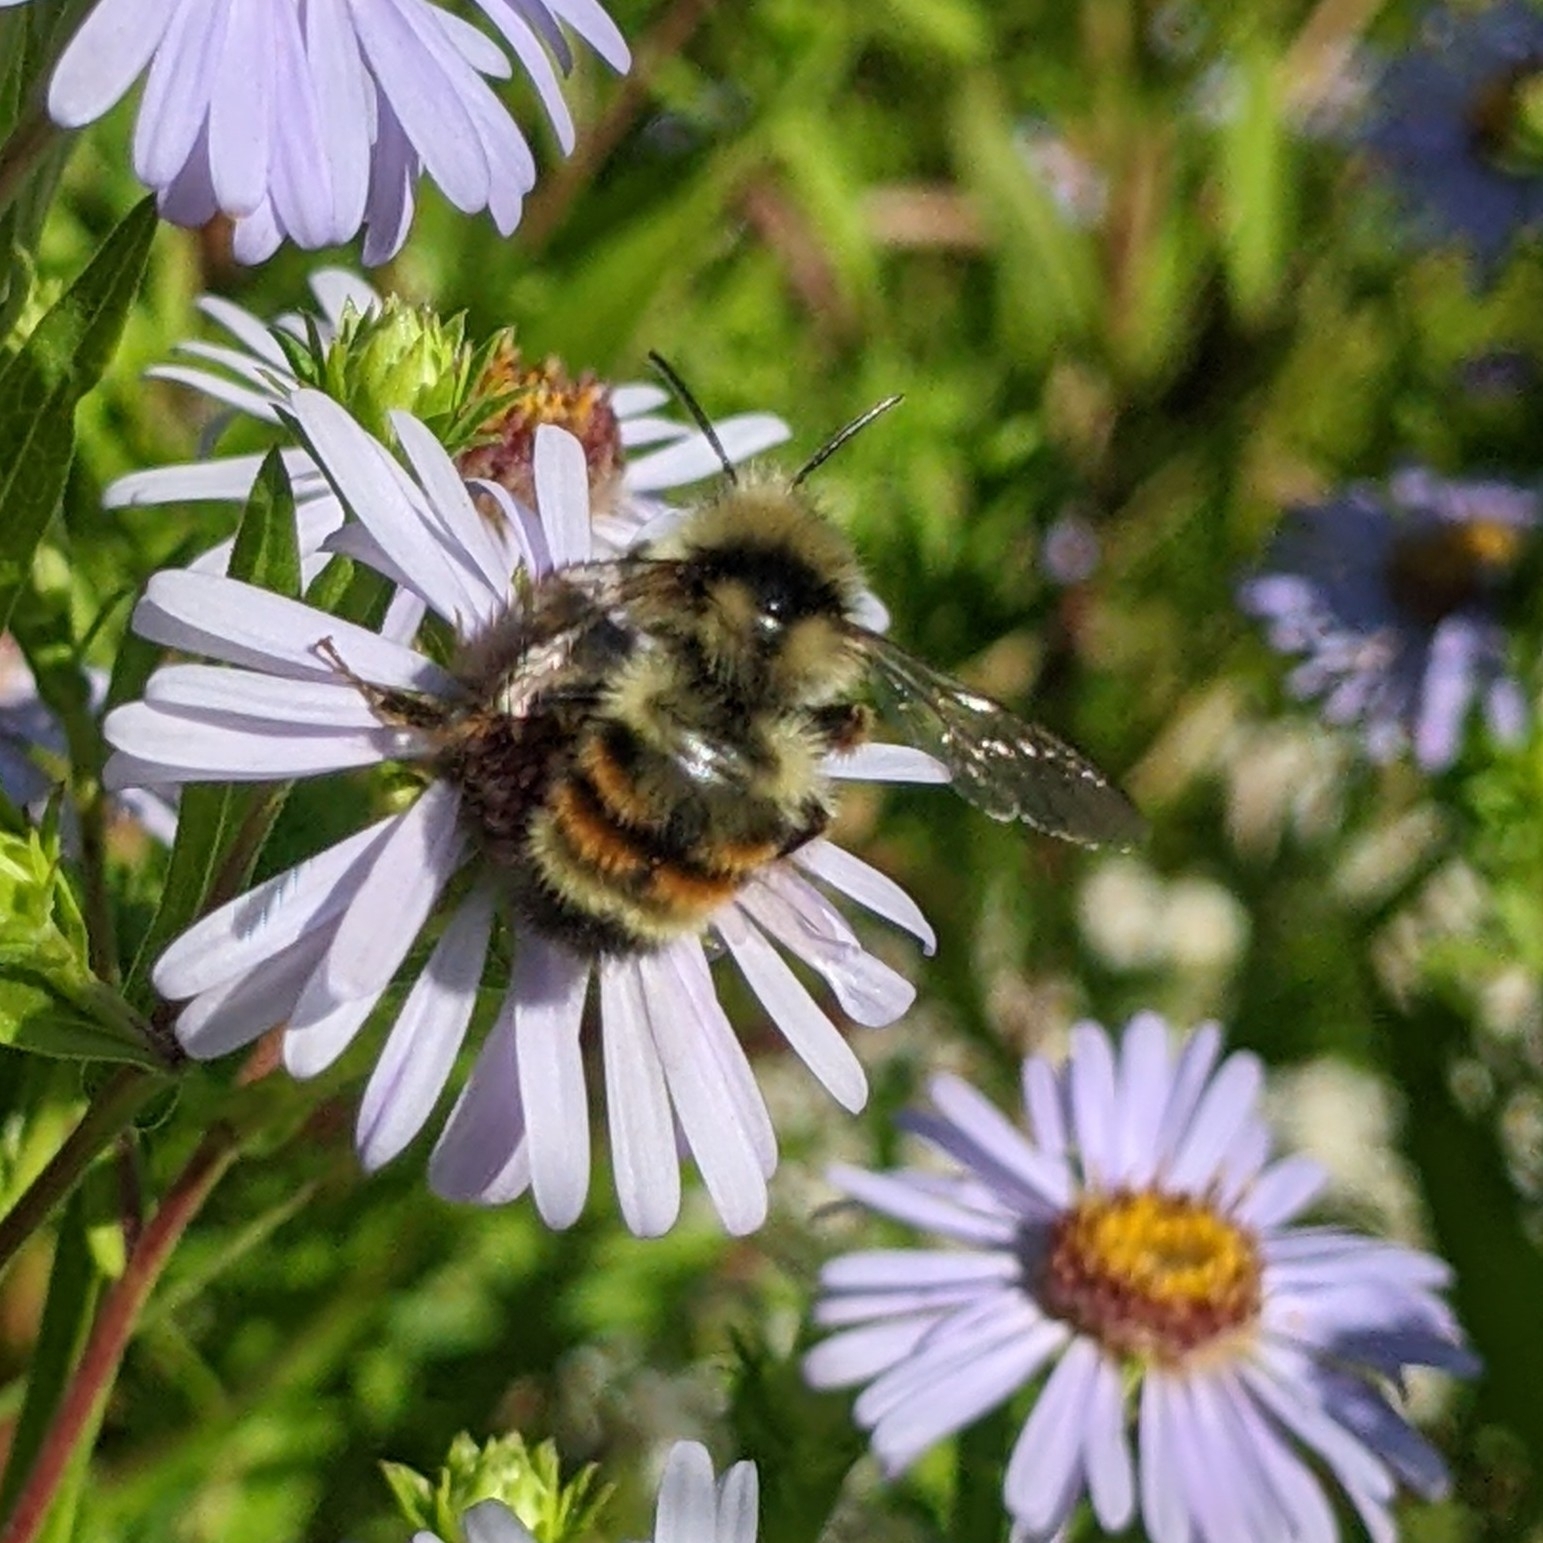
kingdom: Animalia
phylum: Arthropoda
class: Insecta
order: Hymenoptera
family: Apidae
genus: Bombus
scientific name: Bombus vancouverensis
